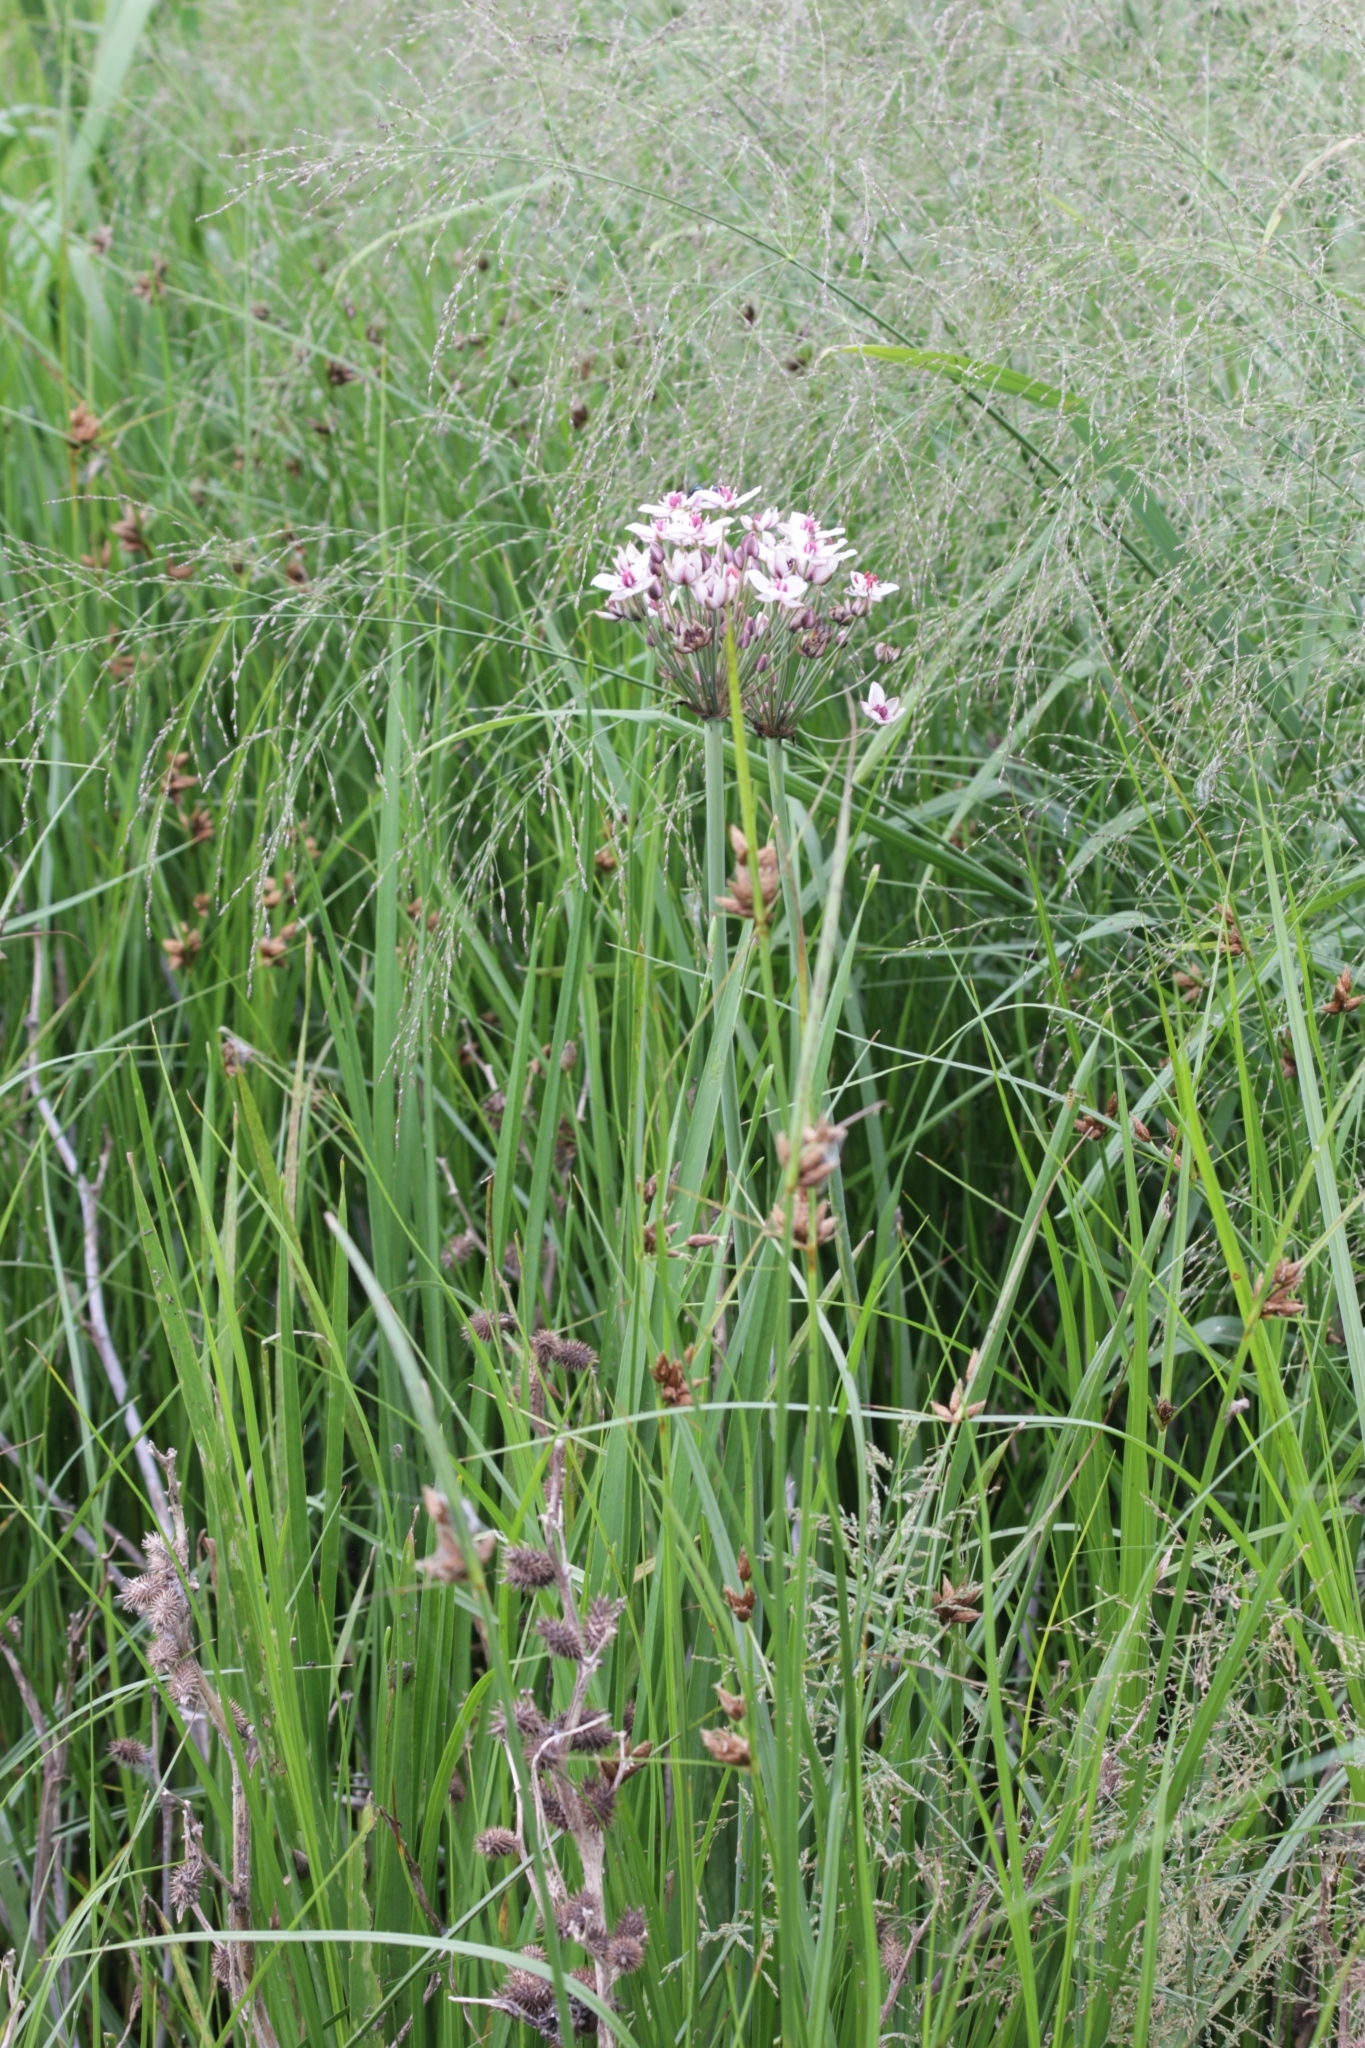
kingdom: Plantae
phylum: Tracheophyta
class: Liliopsida
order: Alismatales
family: Butomaceae
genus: Butomus
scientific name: Butomus umbellatus
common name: Flowering-rush
